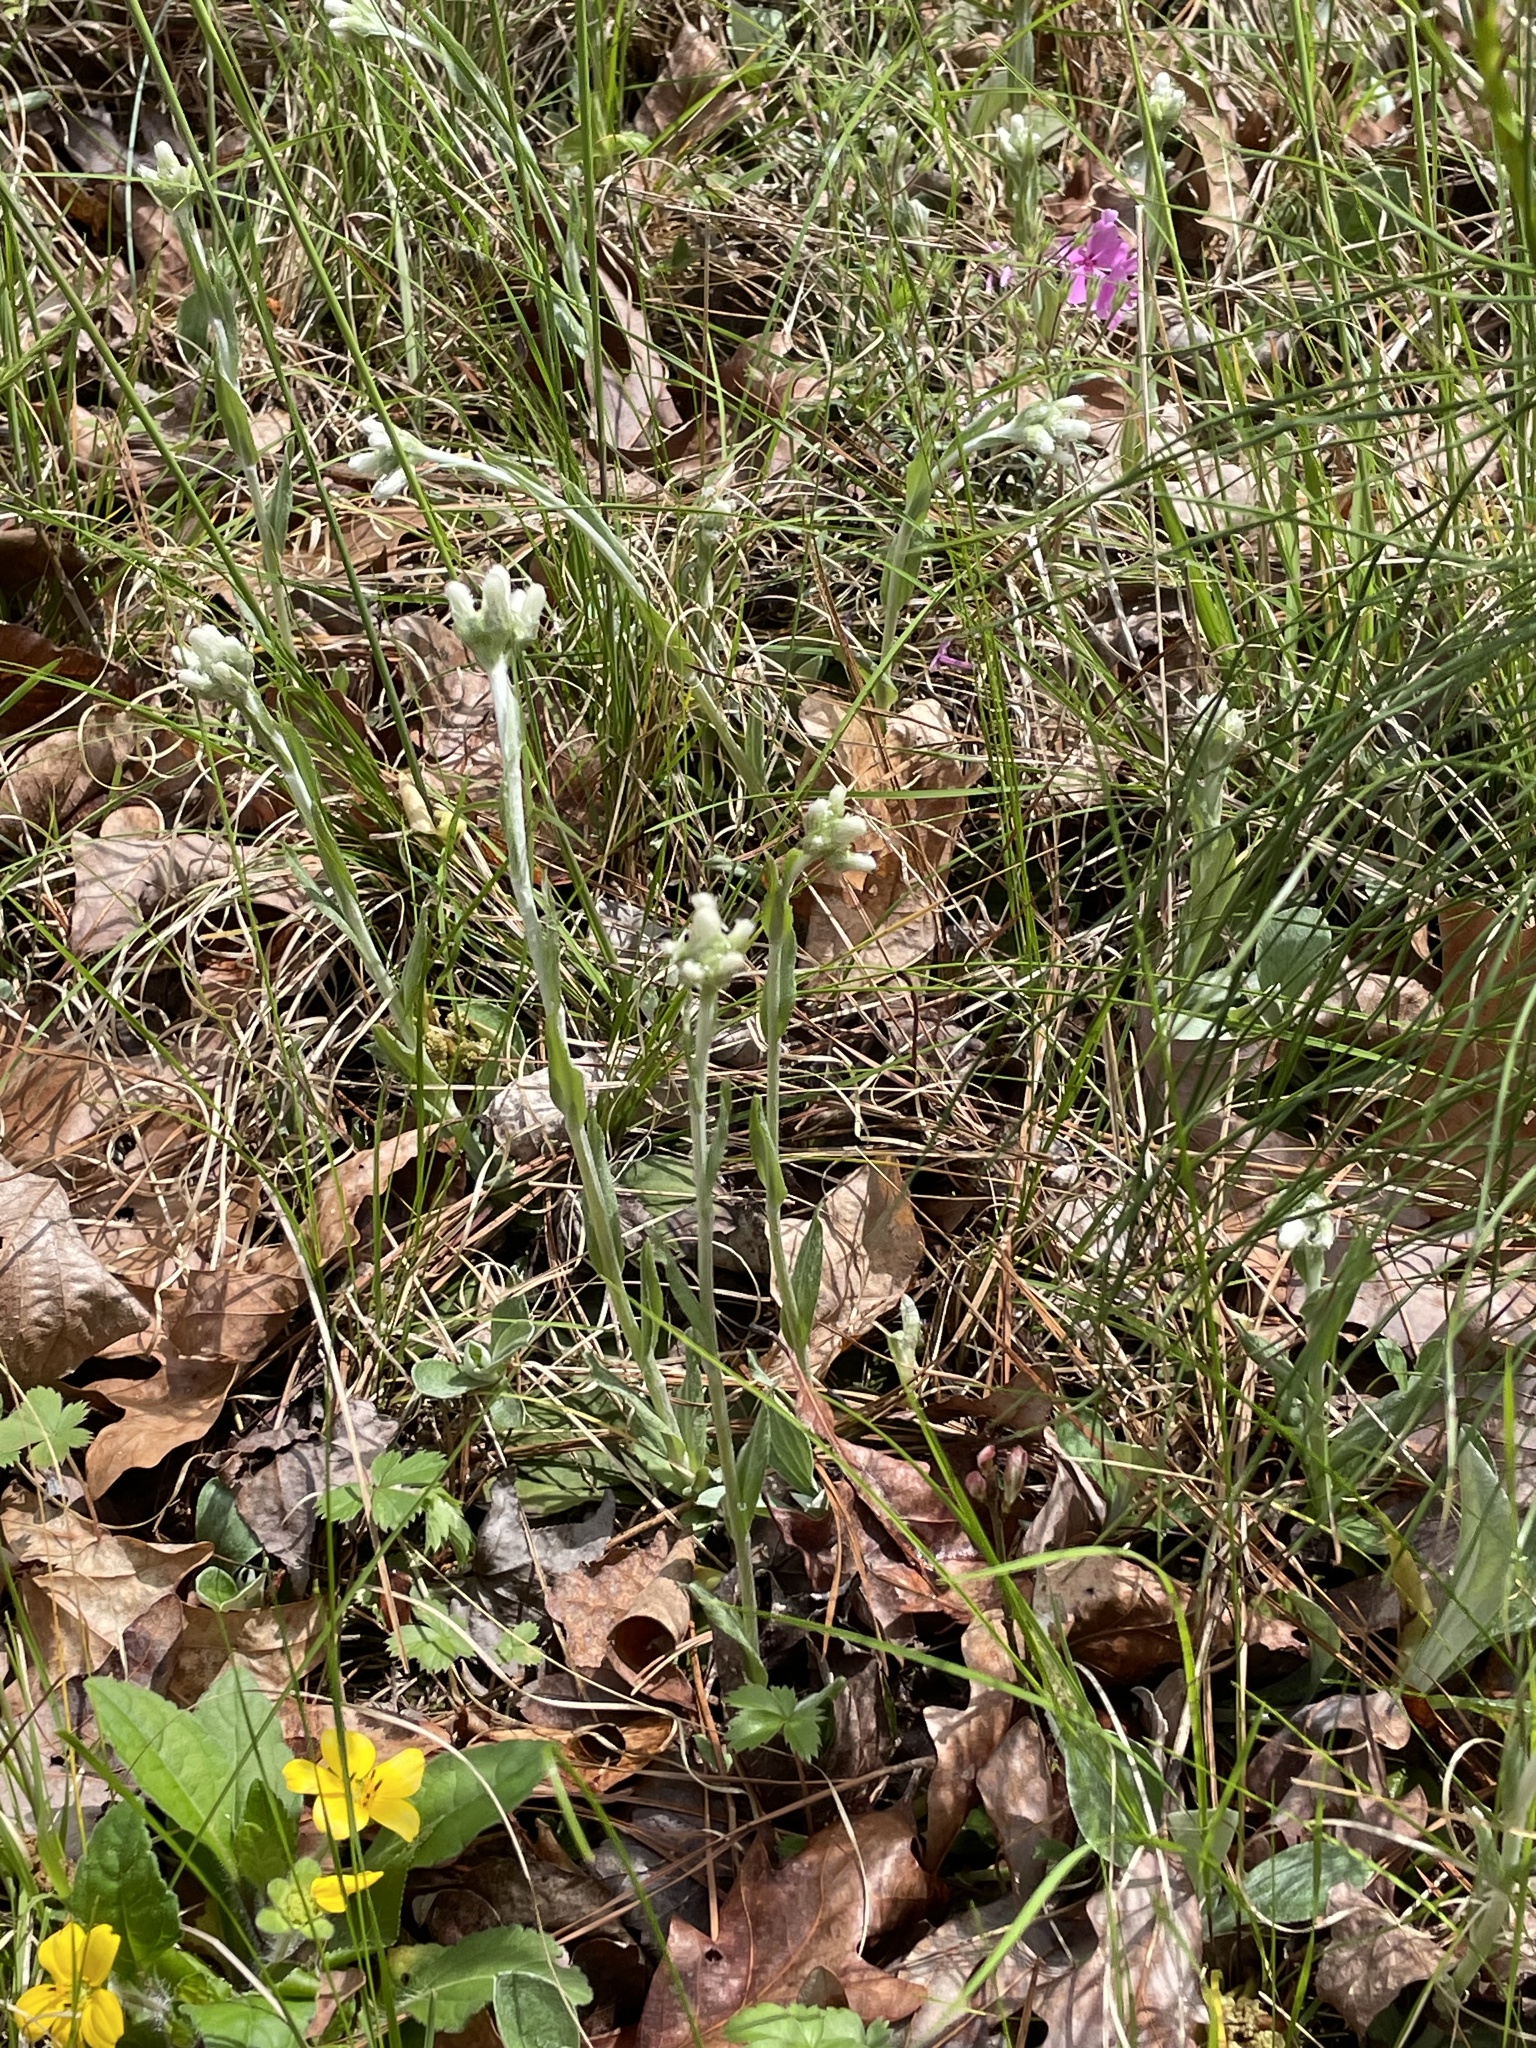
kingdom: Plantae
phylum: Tracheophyta
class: Magnoliopsida
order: Asterales
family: Asteraceae
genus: Antennaria
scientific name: Antennaria parlinii
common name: Parlin's pussytoes
